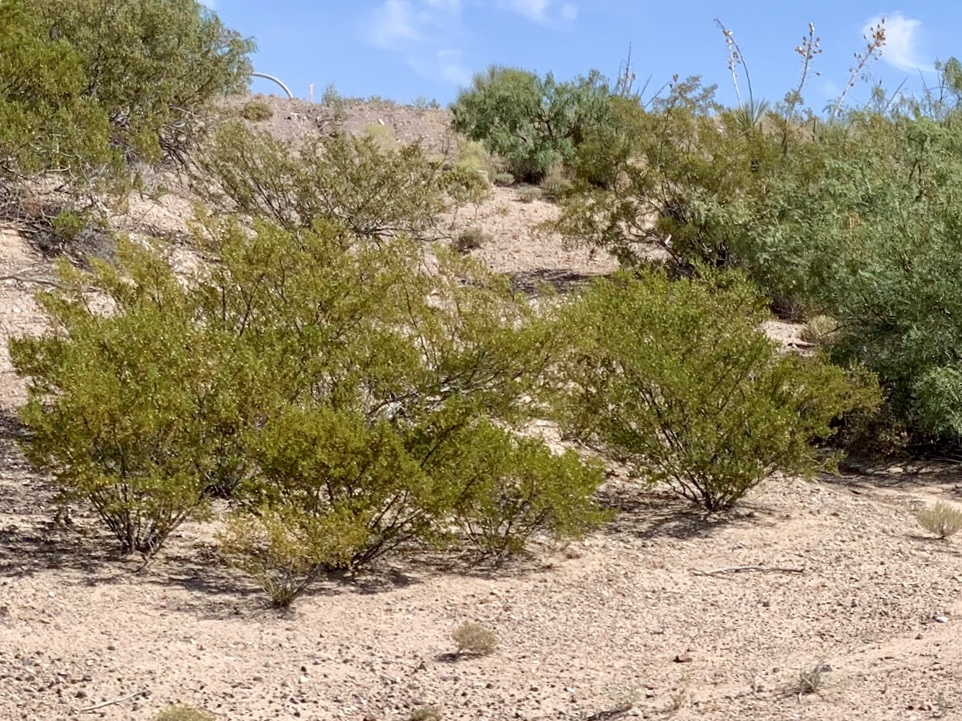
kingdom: Plantae
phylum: Tracheophyta
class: Magnoliopsida
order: Zygophyllales
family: Zygophyllaceae
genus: Larrea
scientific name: Larrea tridentata
